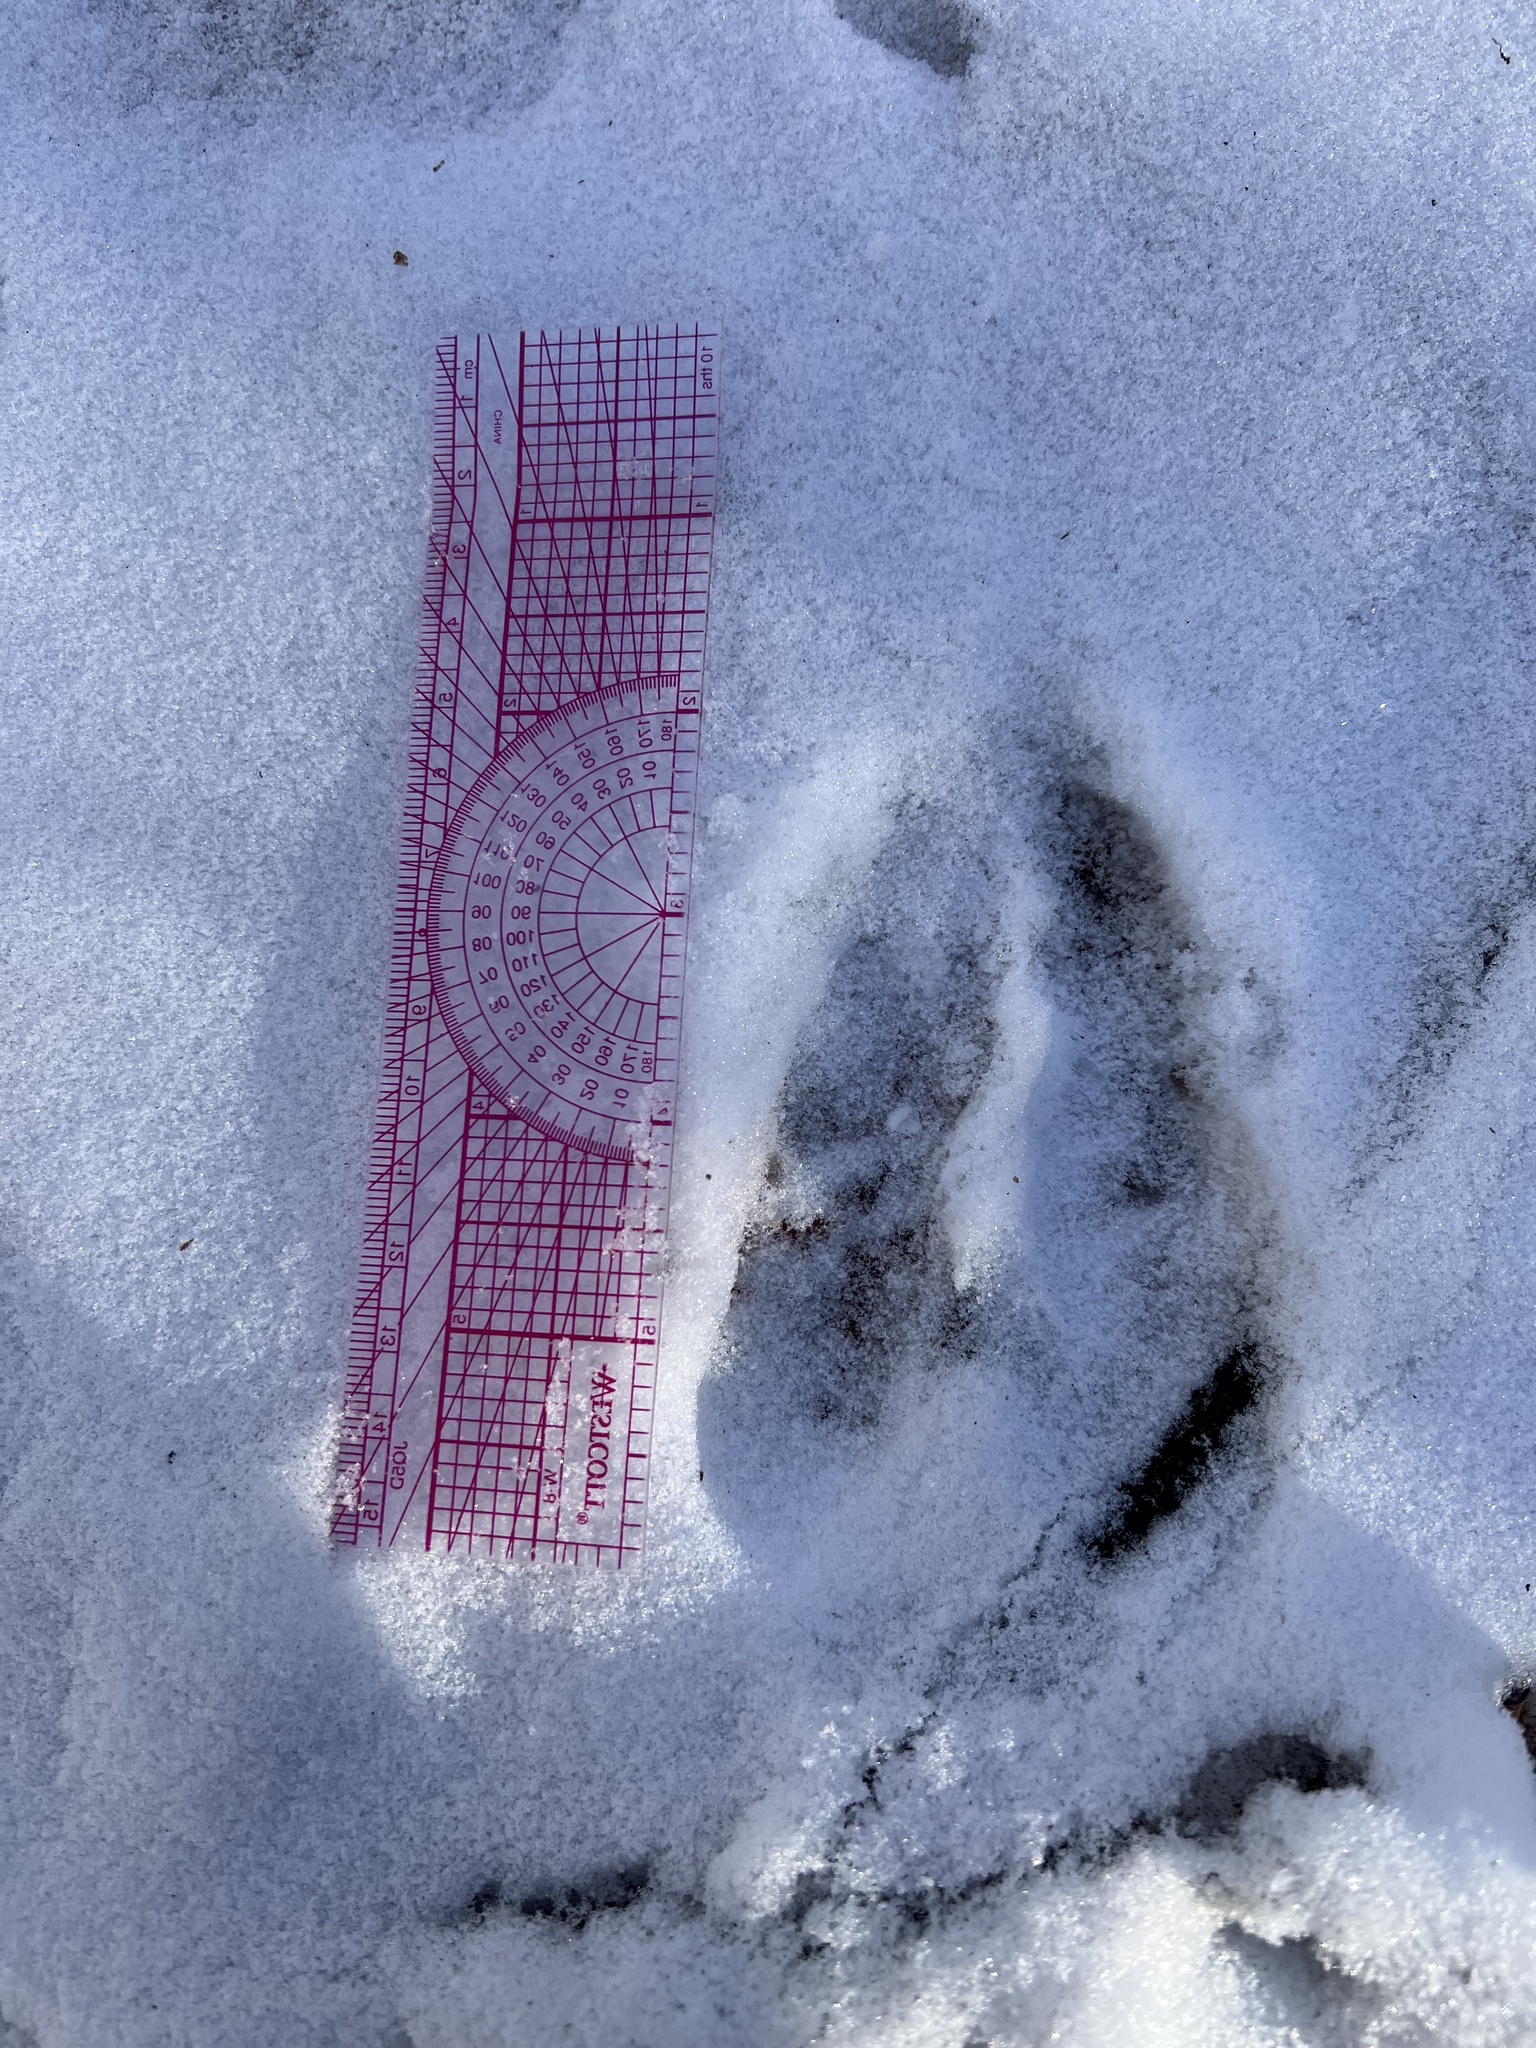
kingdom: Animalia
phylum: Chordata
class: Mammalia
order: Artiodactyla
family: Cervidae
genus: Odocoileus
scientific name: Odocoileus virginianus
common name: White-tailed deer
